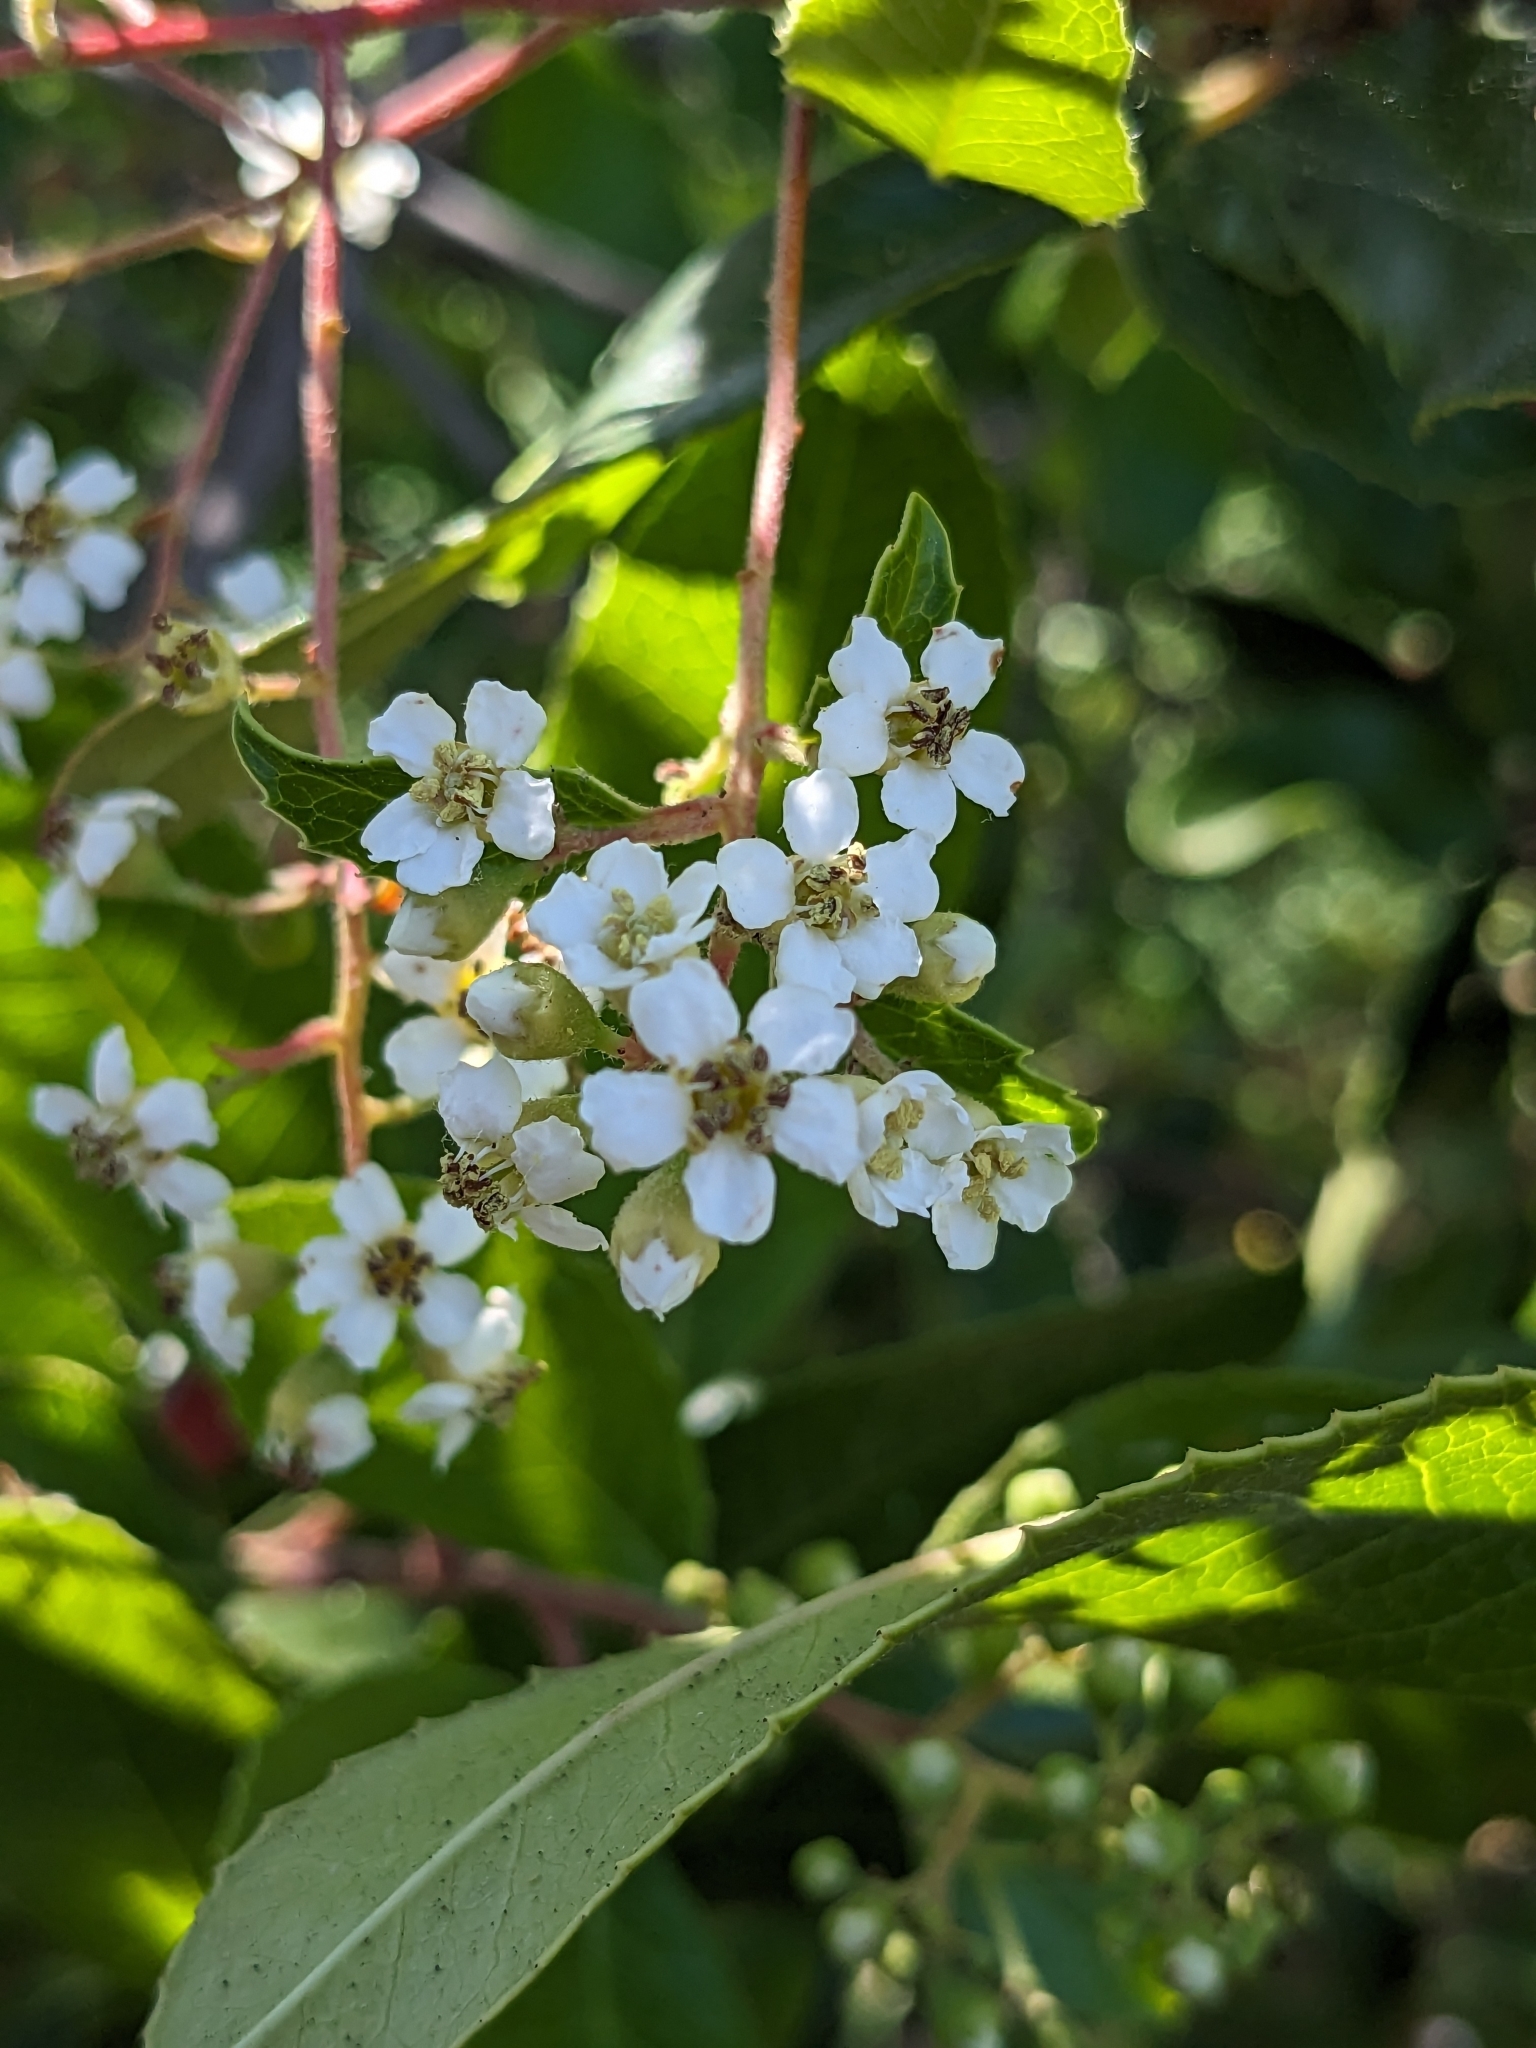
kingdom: Plantae
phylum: Tracheophyta
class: Magnoliopsida
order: Rosales
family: Rosaceae
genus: Heteromeles
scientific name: Heteromeles arbutifolia
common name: California-holly
